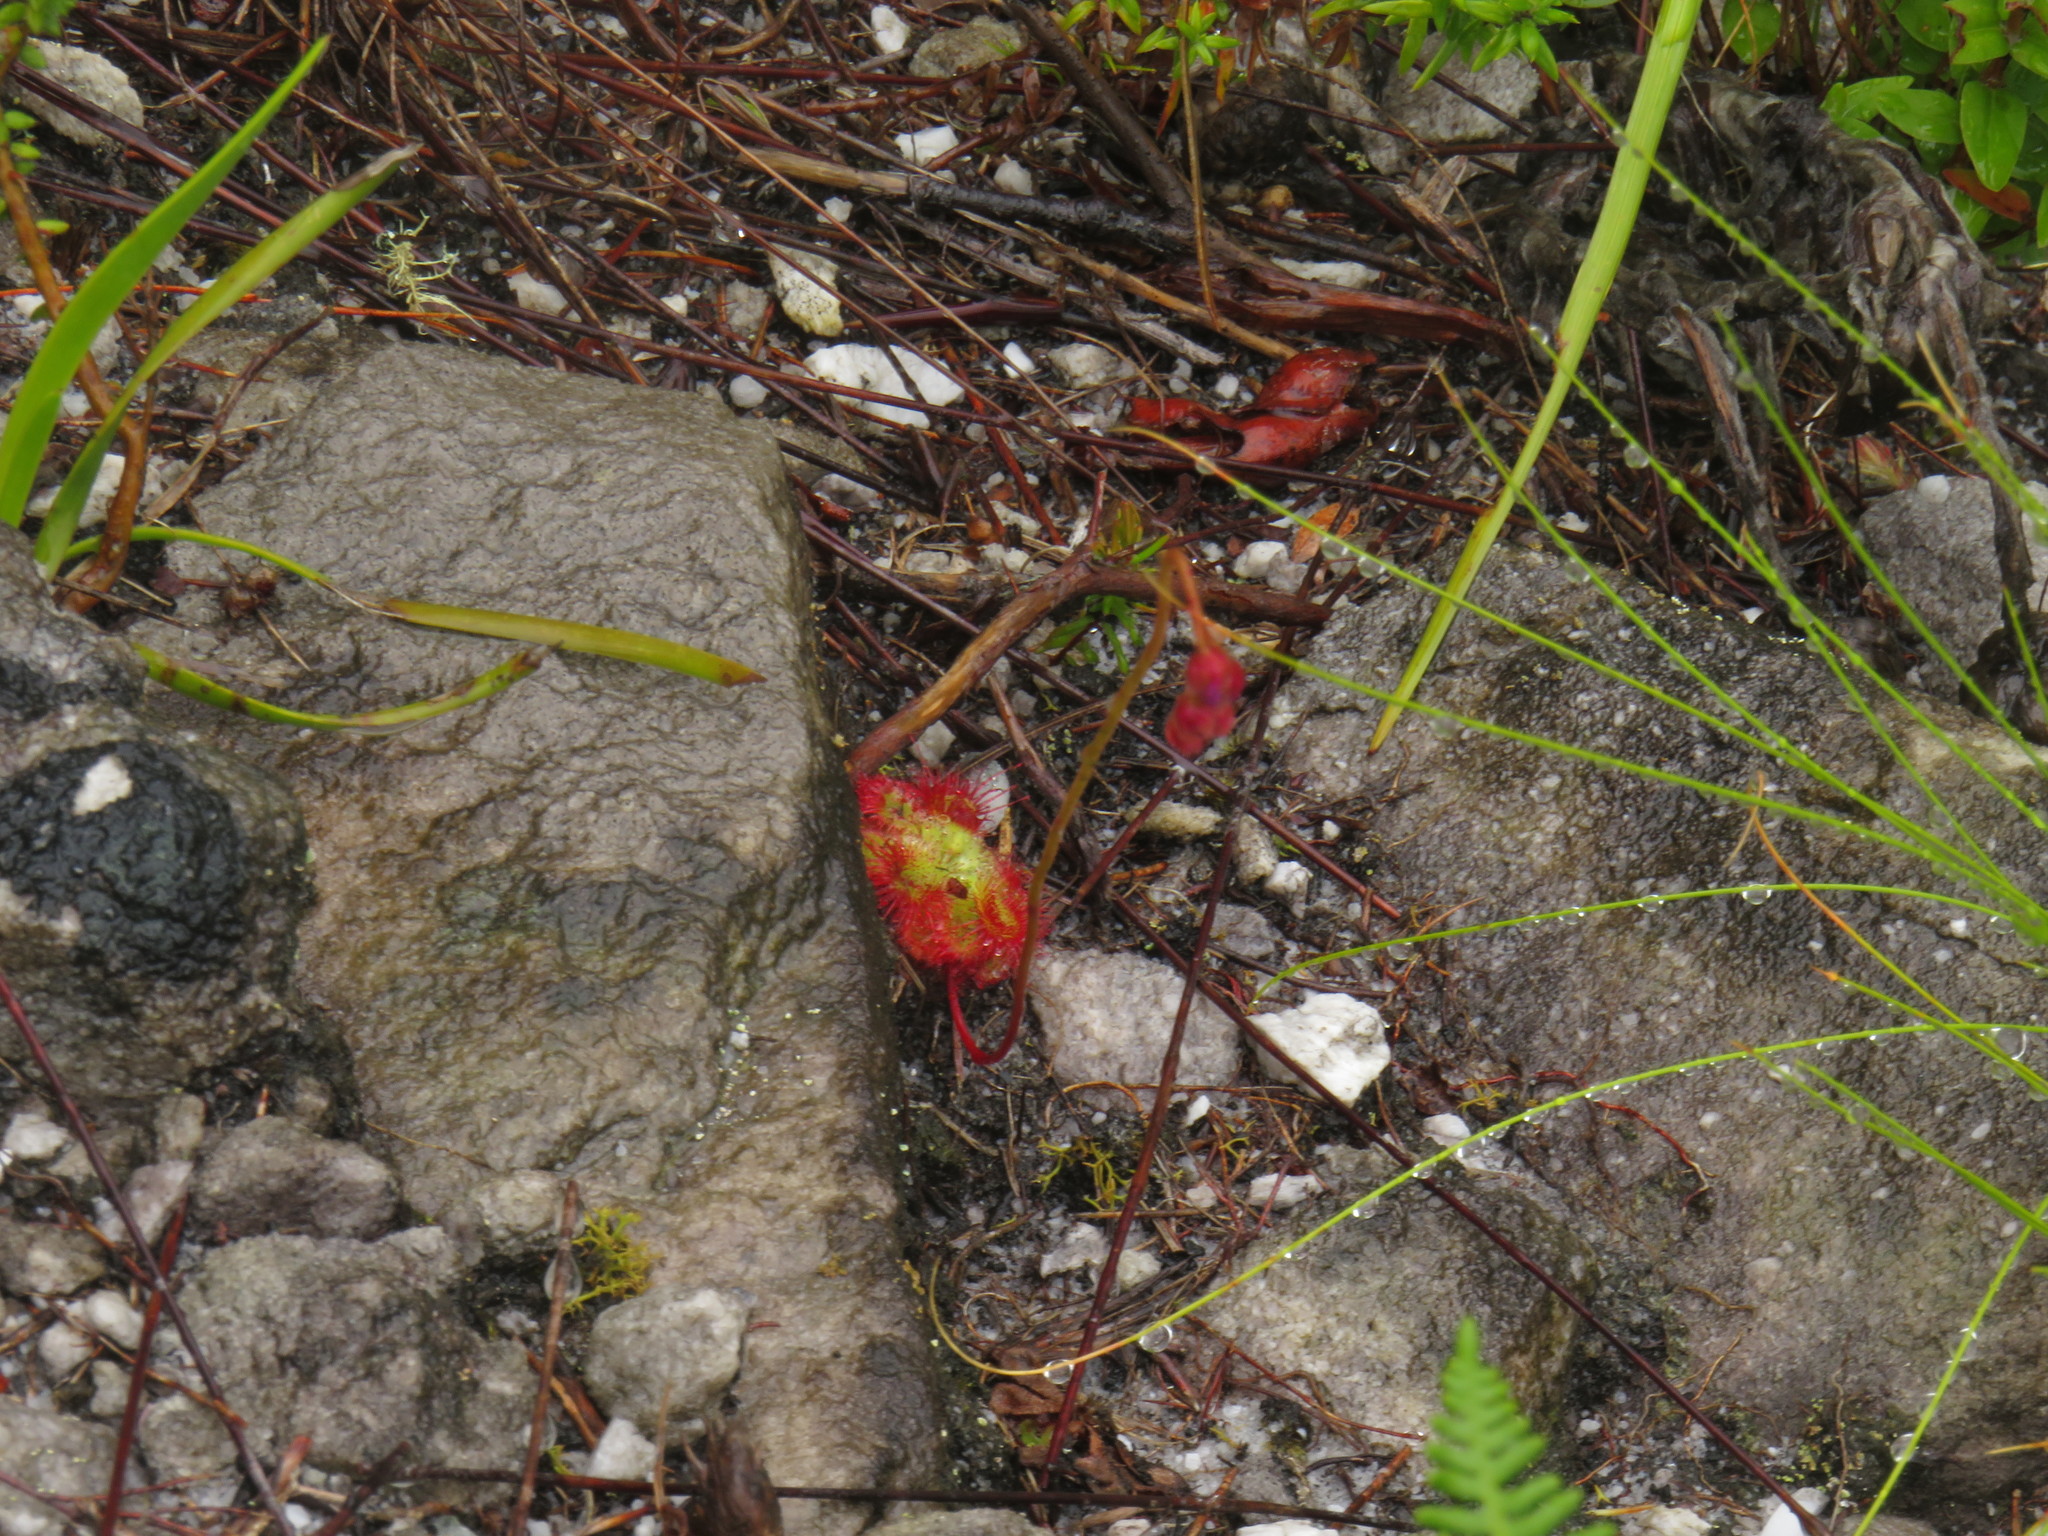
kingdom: Plantae
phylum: Tracheophyta
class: Magnoliopsida
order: Caryophyllales
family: Droseraceae
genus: Drosera
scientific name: Drosera xerophila
